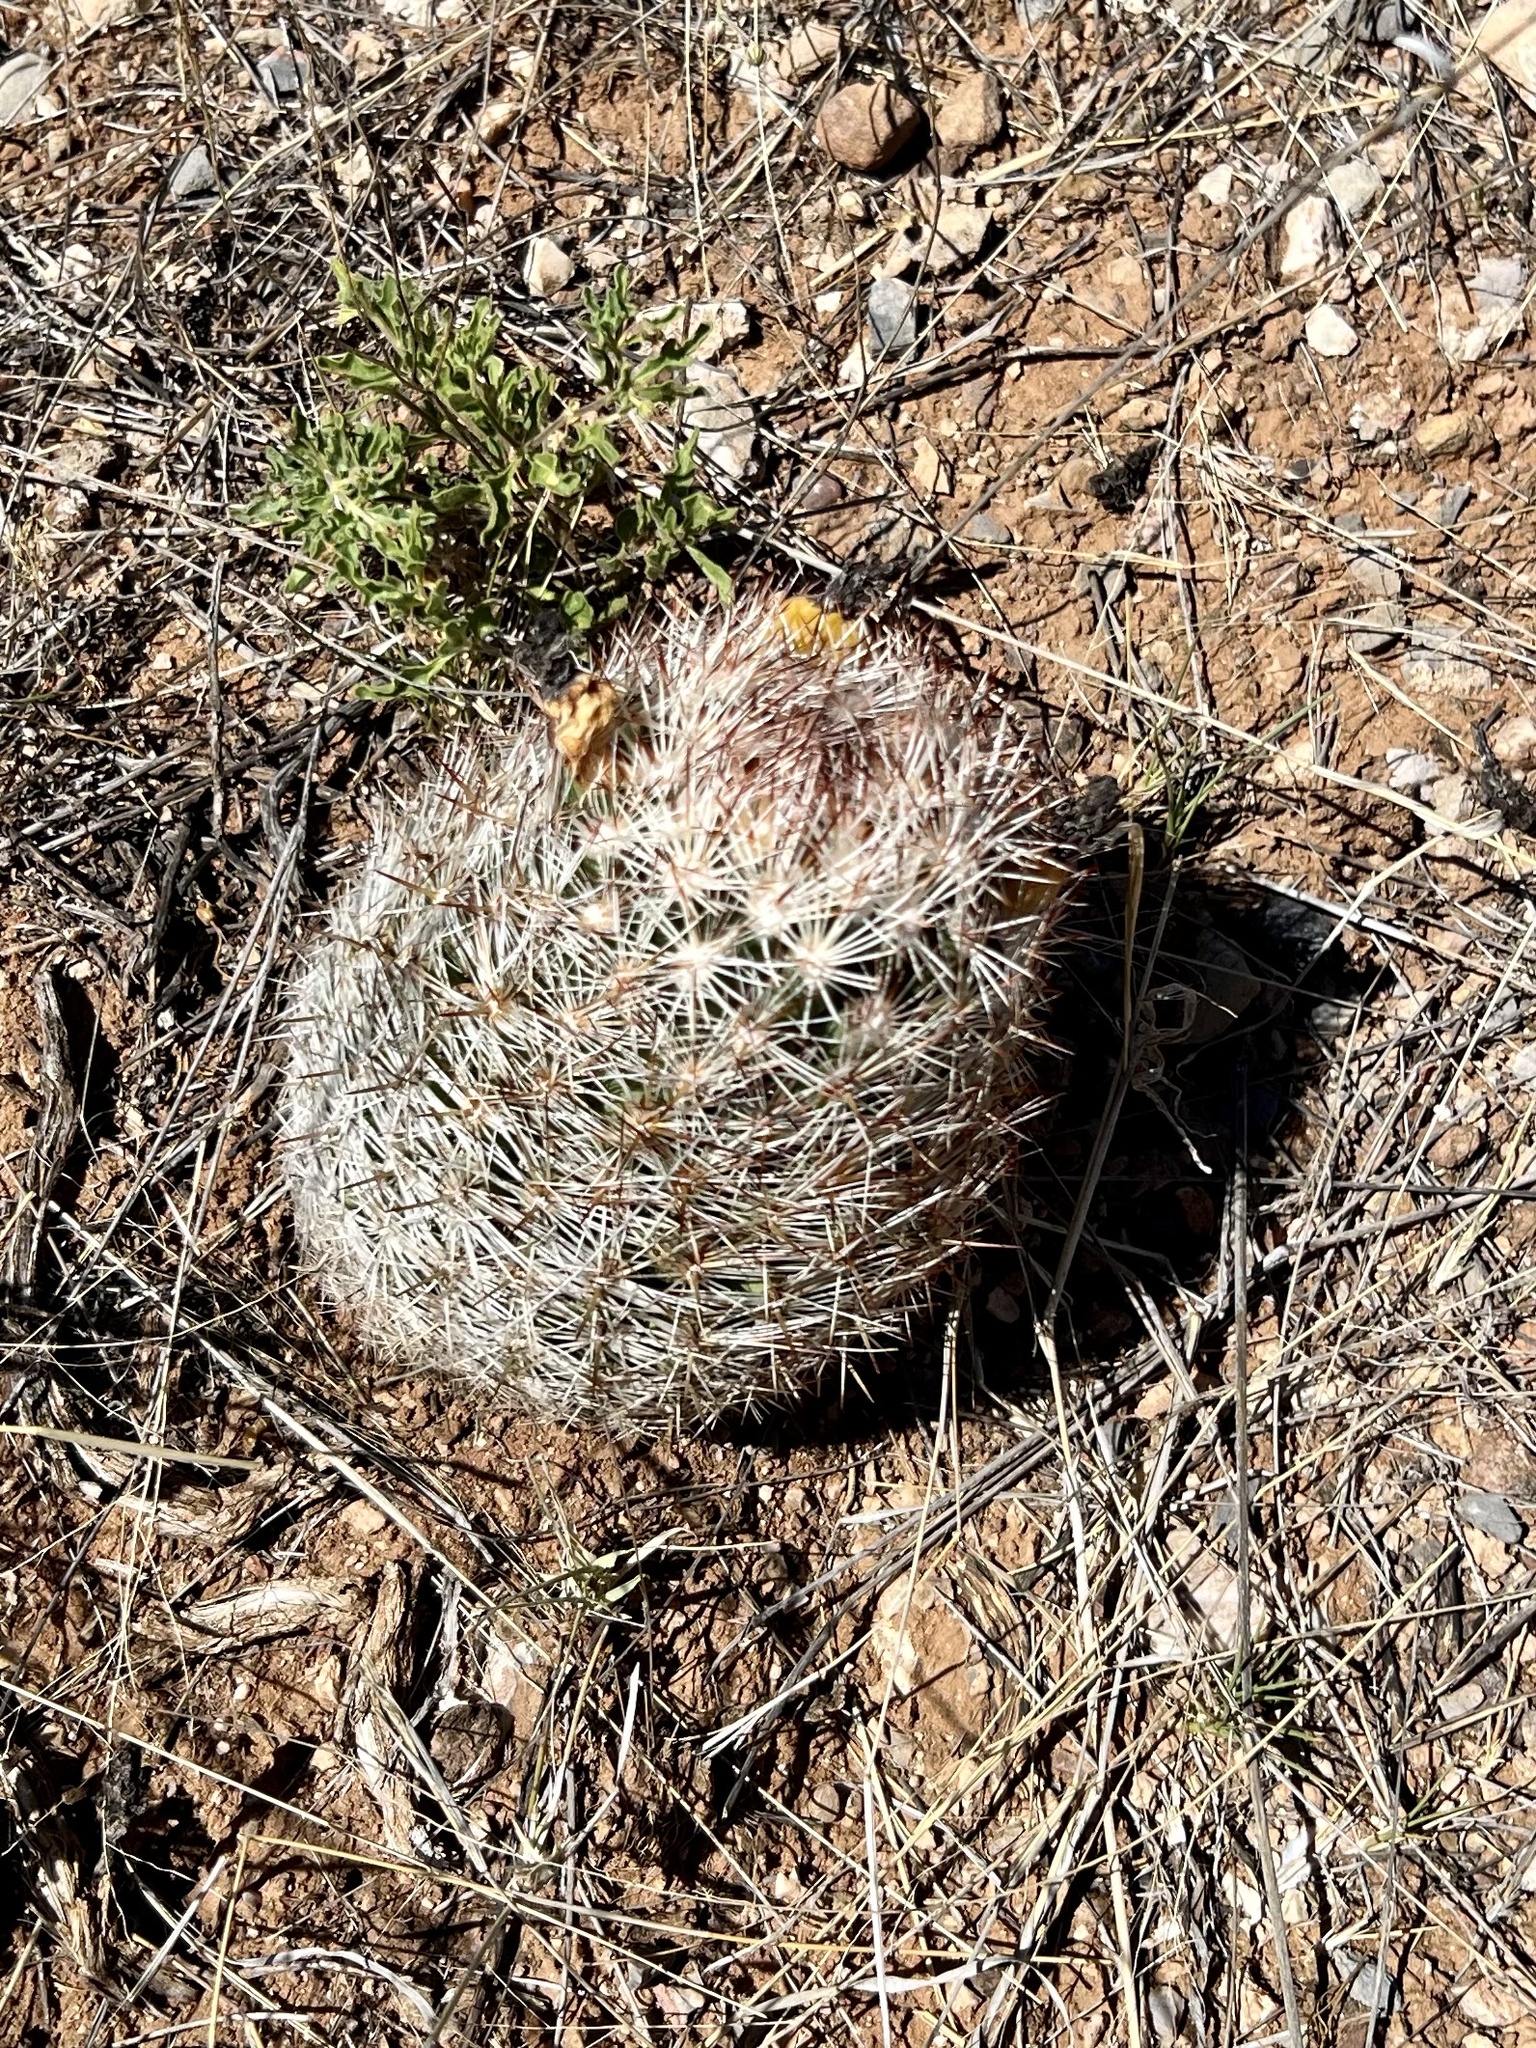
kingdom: Plantae
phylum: Tracheophyta
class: Magnoliopsida
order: Caryophyllales
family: Cactaceae
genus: Pelecyphora
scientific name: Pelecyphora vivipara
